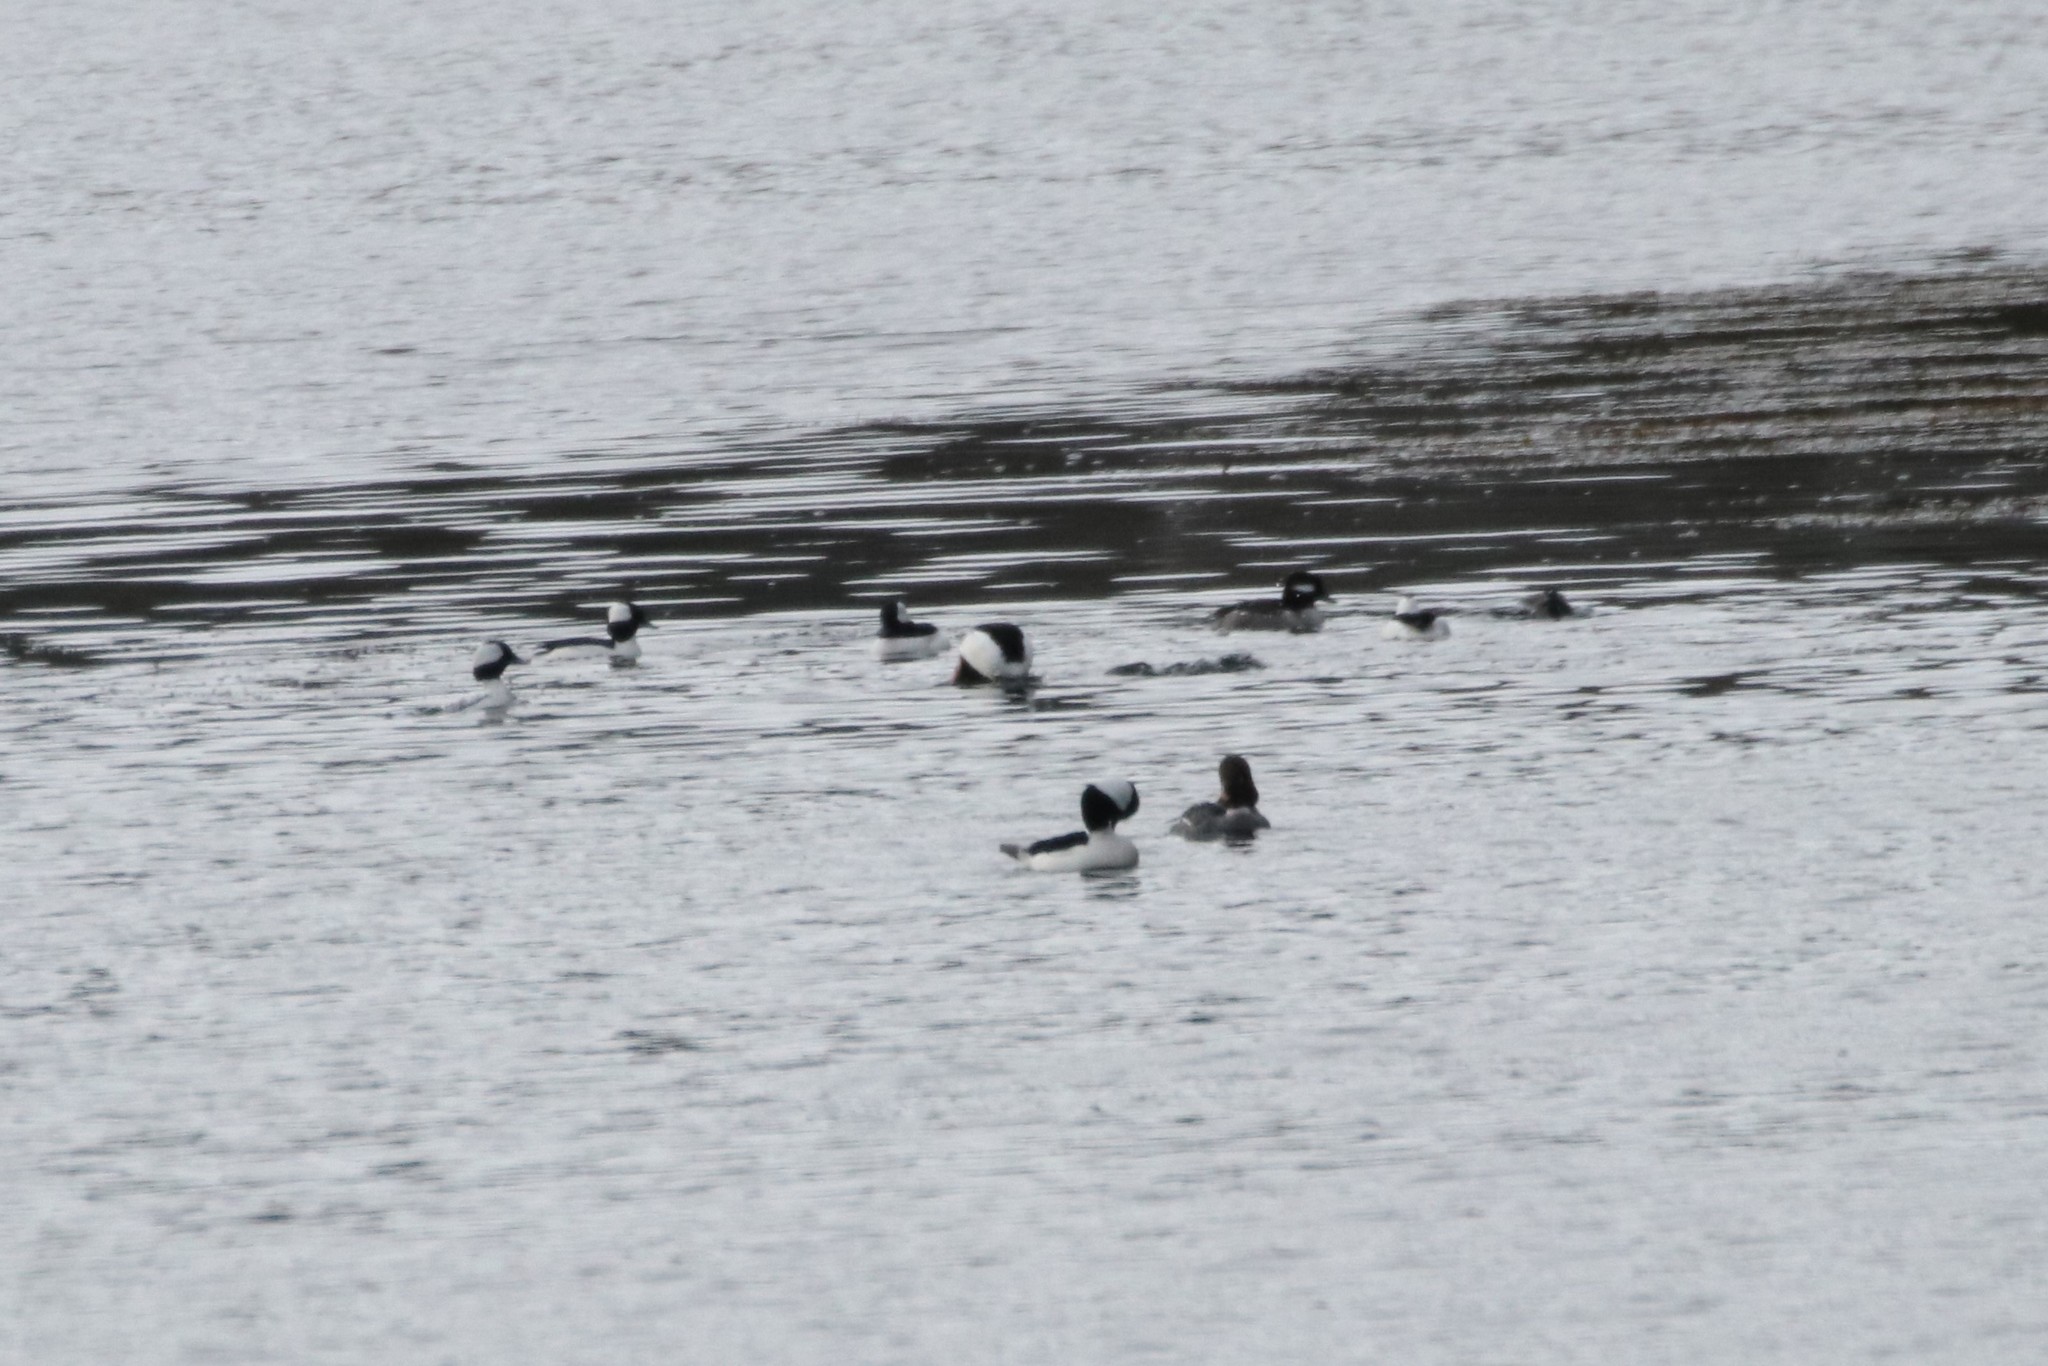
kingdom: Animalia
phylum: Chordata
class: Aves
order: Anseriformes
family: Anatidae
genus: Bucephala
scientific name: Bucephala albeola
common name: Bufflehead
